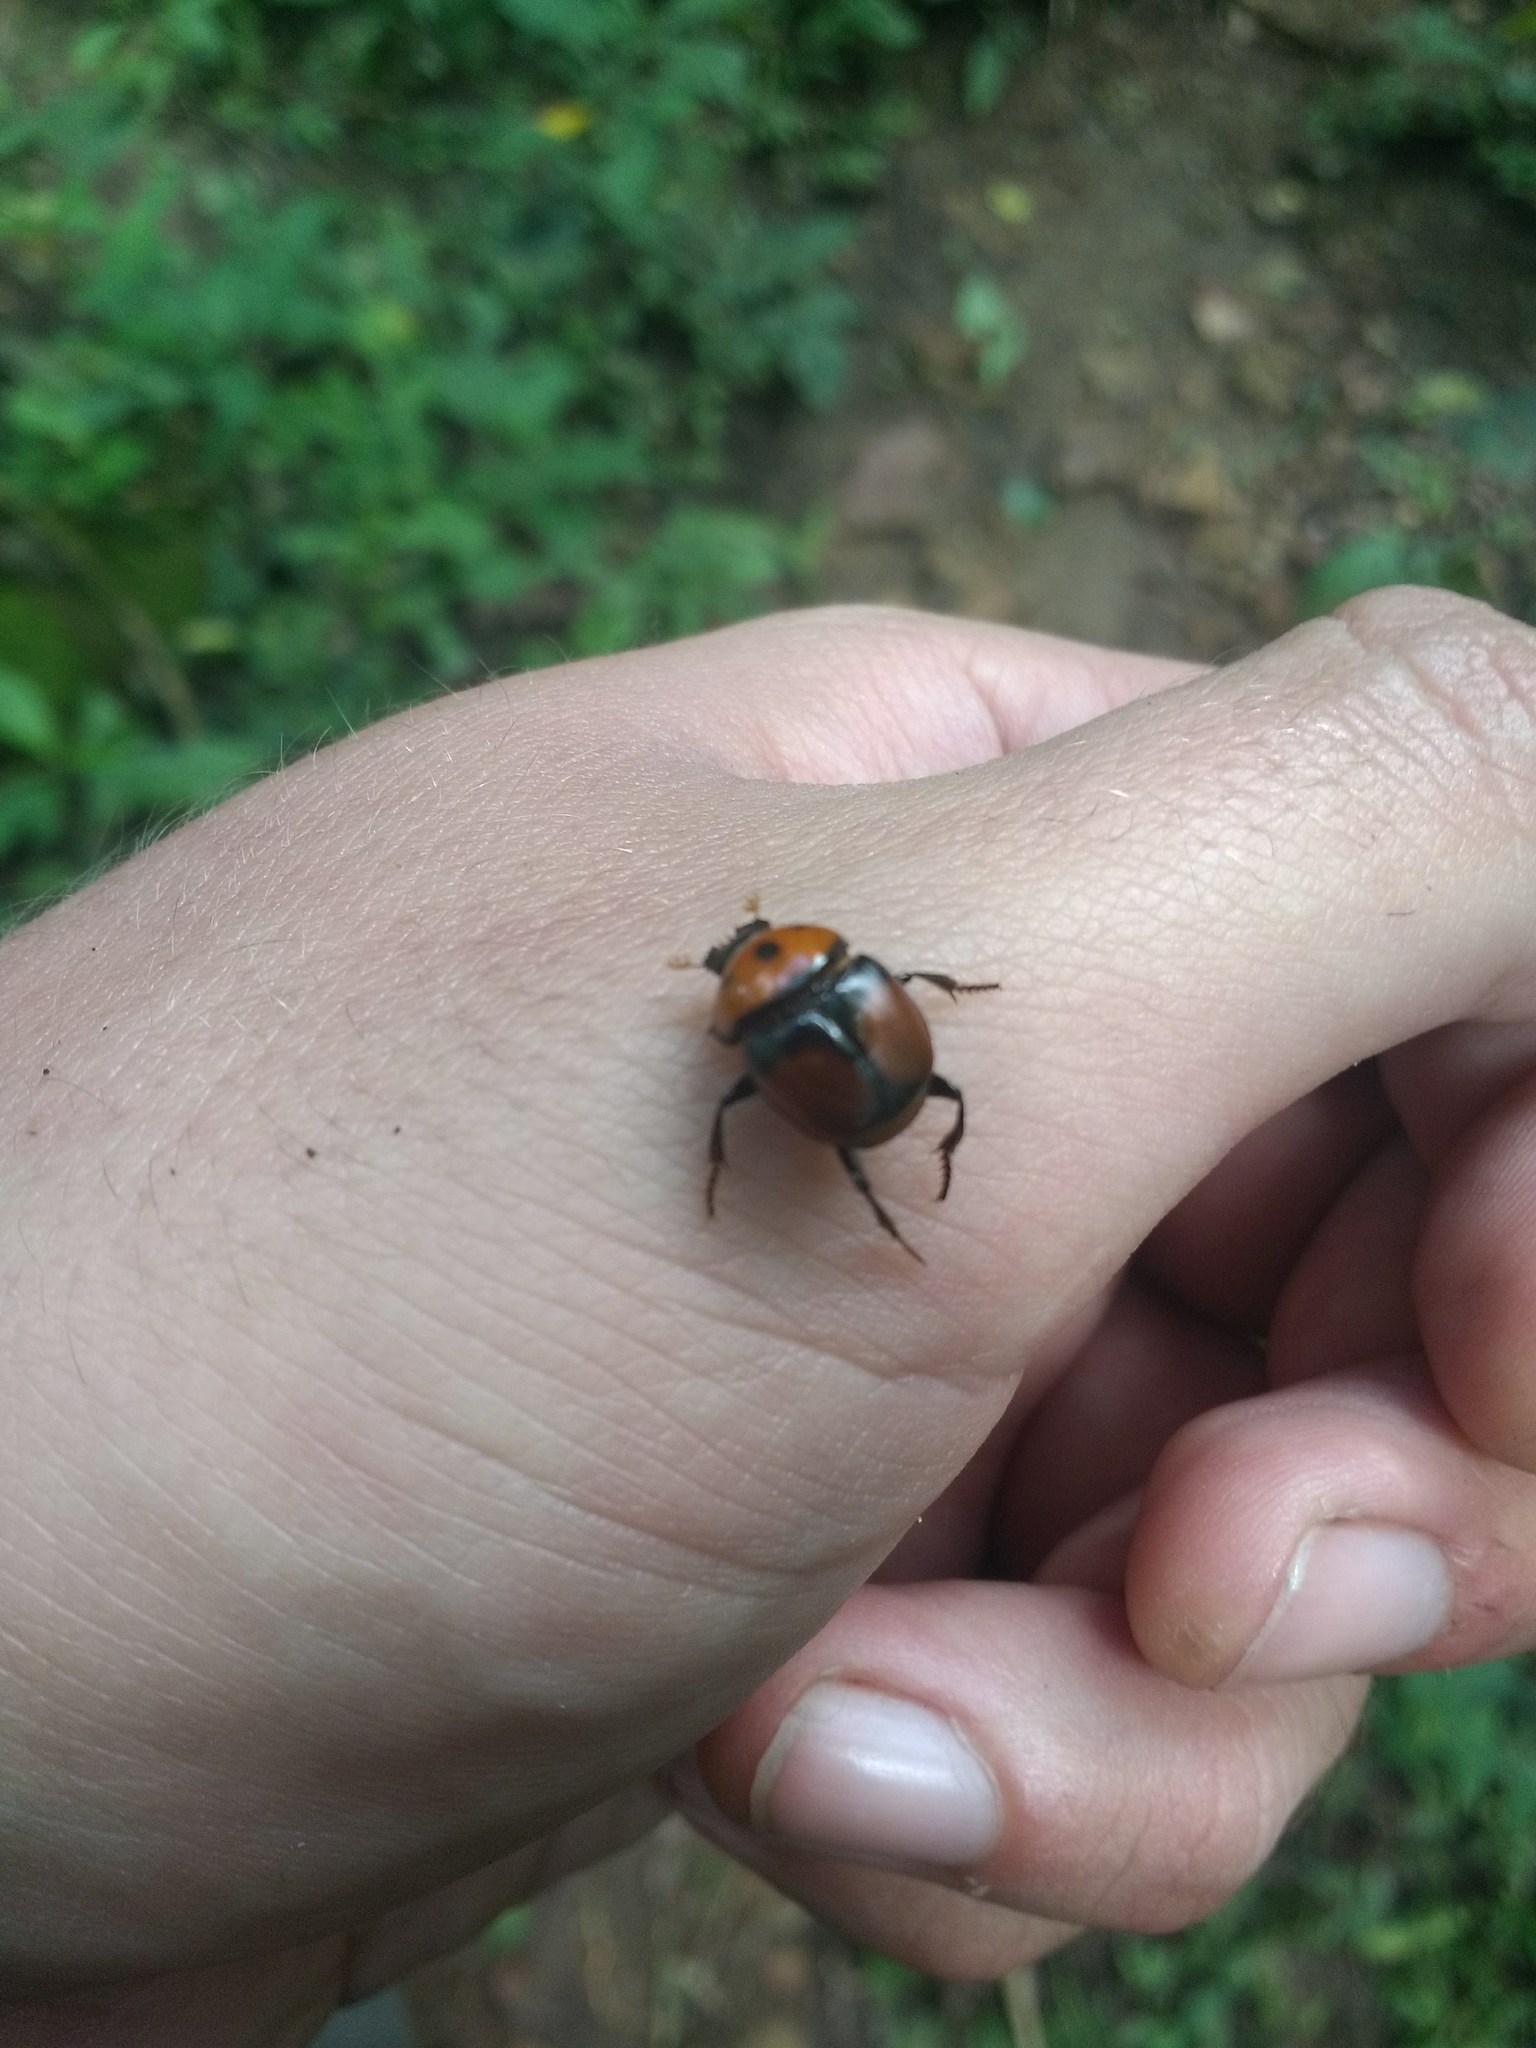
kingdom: Animalia
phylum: Arthropoda
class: Insecta
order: Coleoptera
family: Scarabaeidae
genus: Canthon
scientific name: Canthon quinquemaculatus
